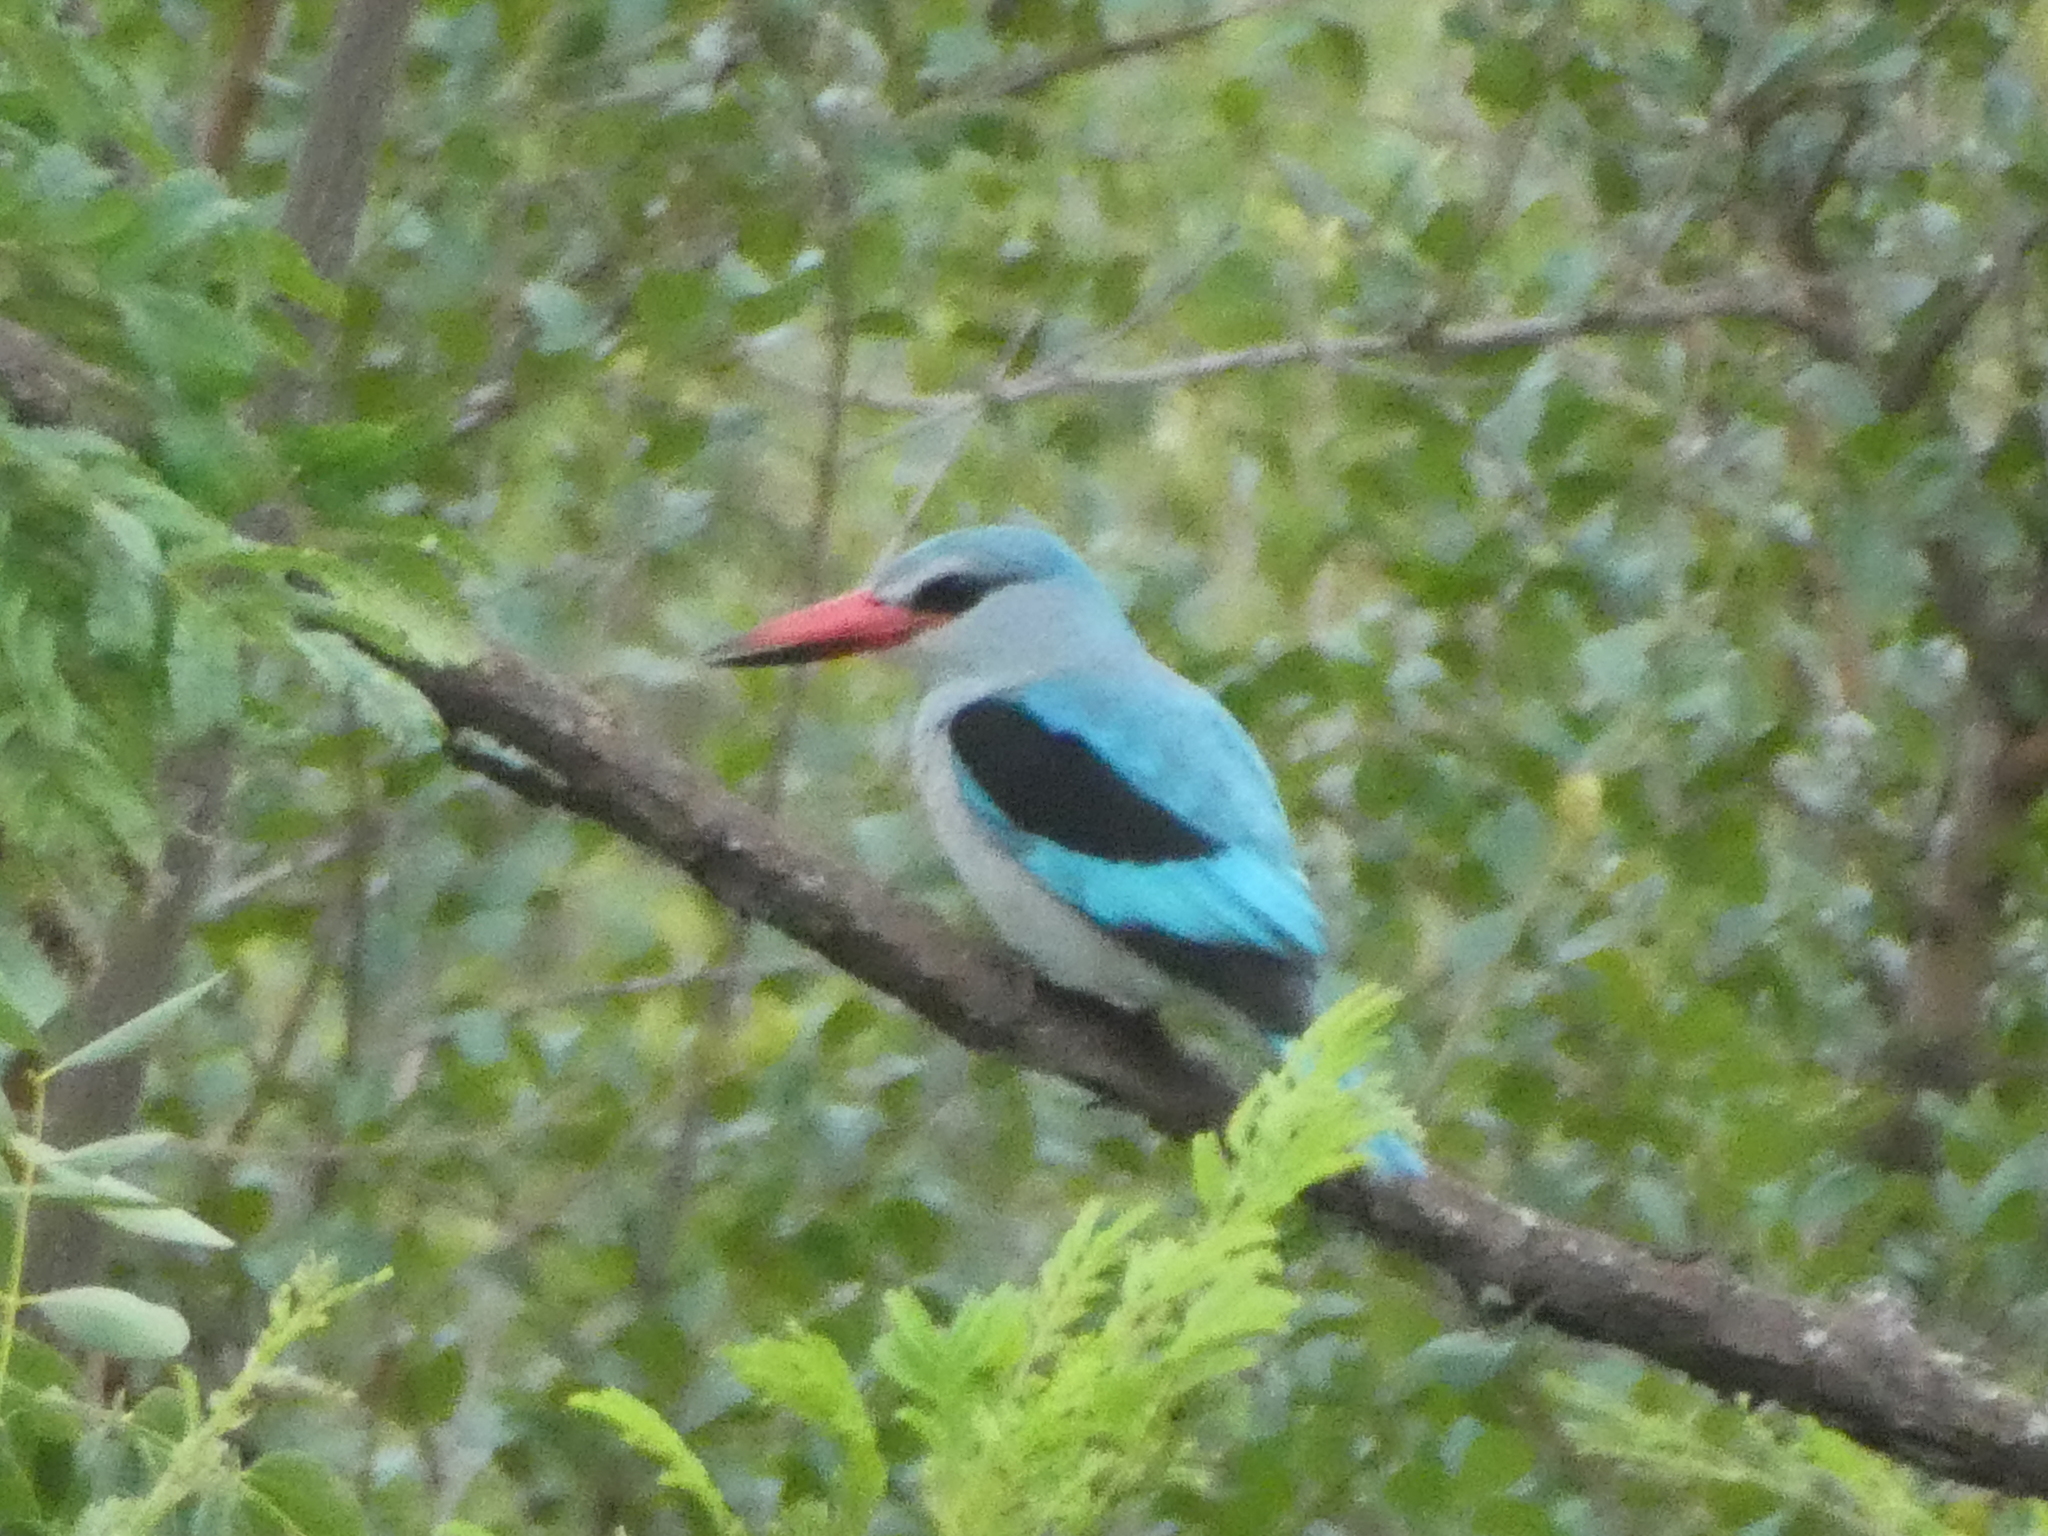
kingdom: Animalia
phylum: Chordata
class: Aves
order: Coraciiformes
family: Alcedinidae
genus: Halcyon
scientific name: Halcyon senegalensis
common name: Woodland kingfisher
